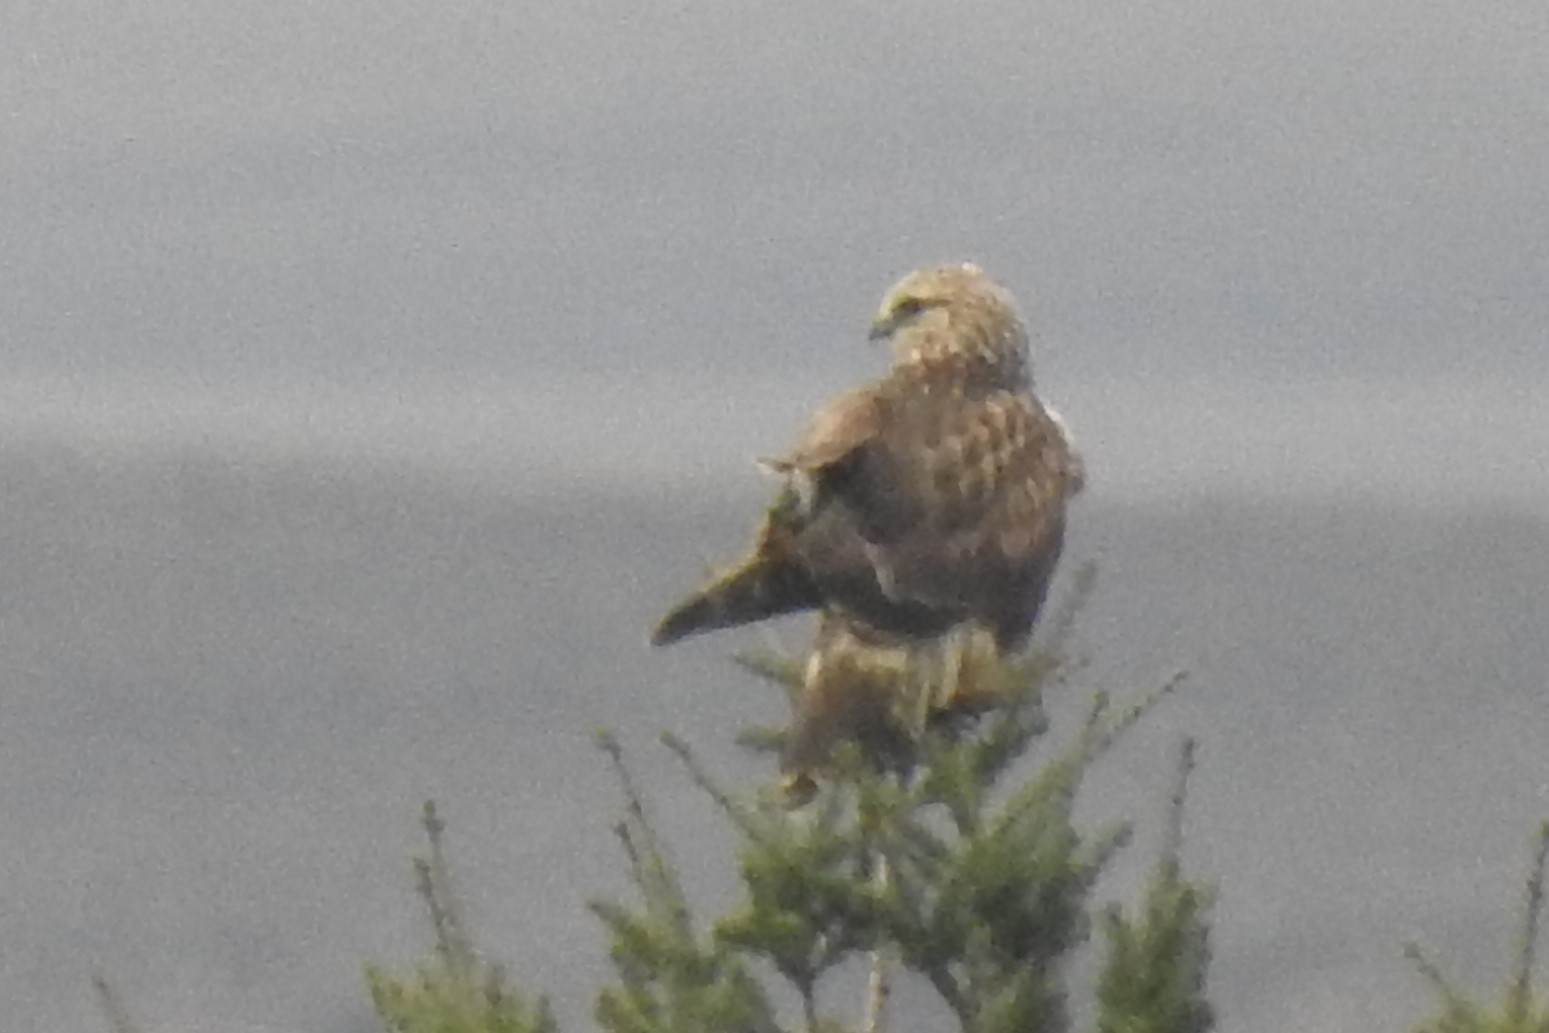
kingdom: Animalia
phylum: Chordata
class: Aves
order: Accipitriformes
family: Accipitridae
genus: Buteo
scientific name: Buteo lagopus
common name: Rough-legged buzzard
